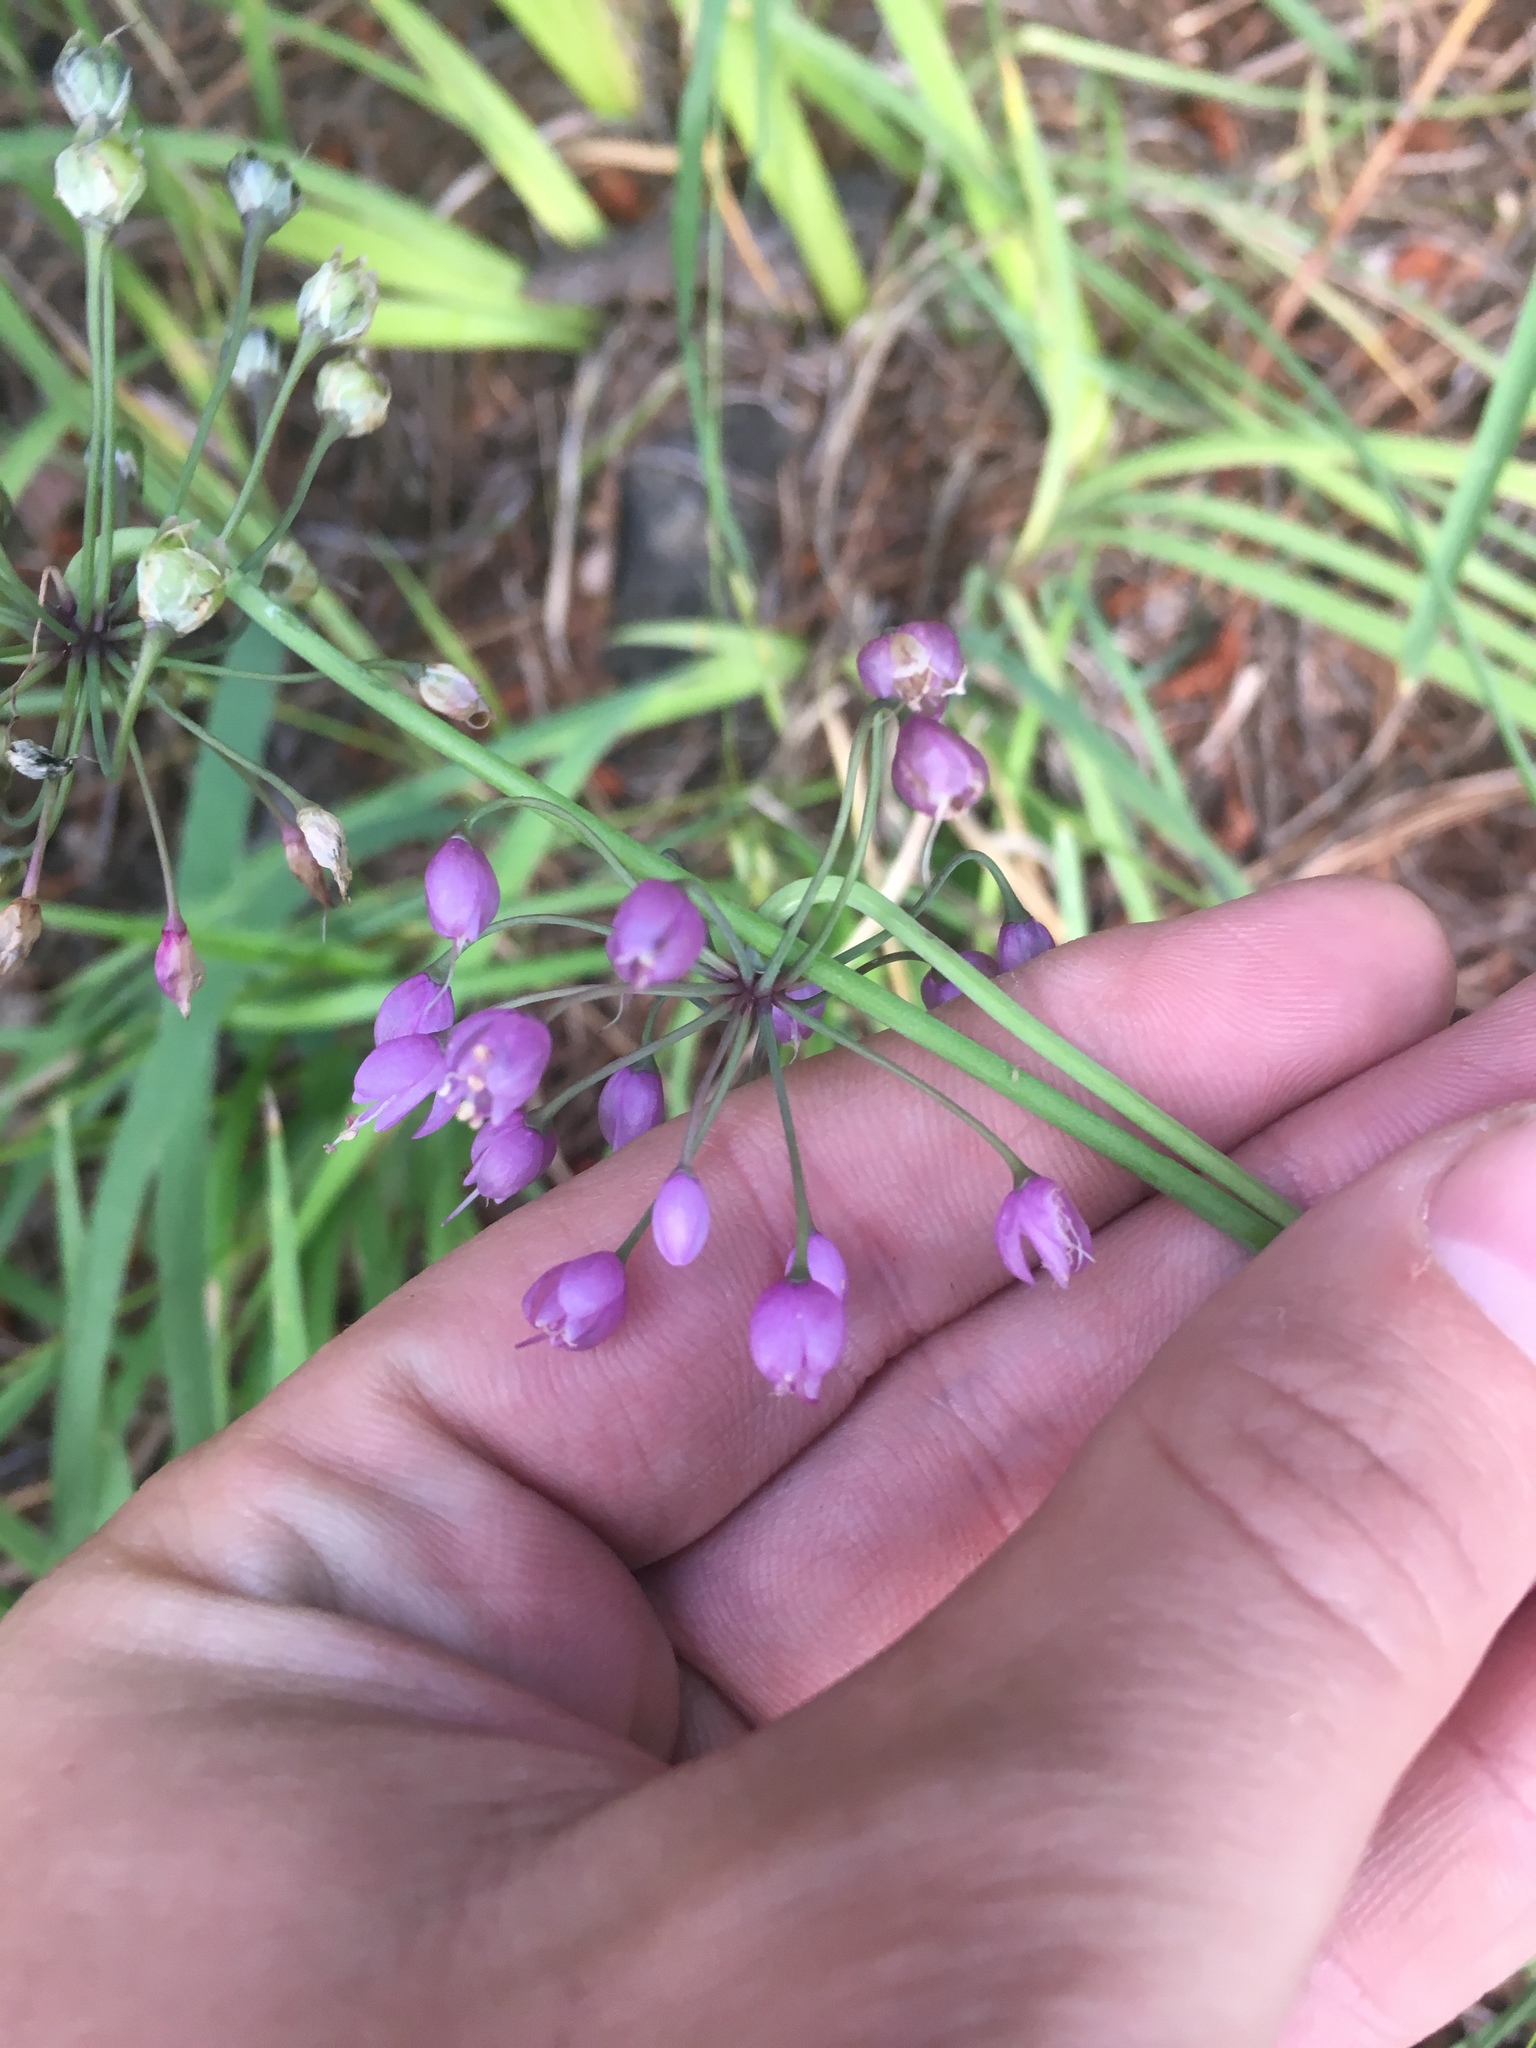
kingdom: Plantae
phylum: Tracheophyta
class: Liliopsida
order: Asparagales
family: Amaryllidaceae
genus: Allium
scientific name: Allium cernuum
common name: Nodding onion
